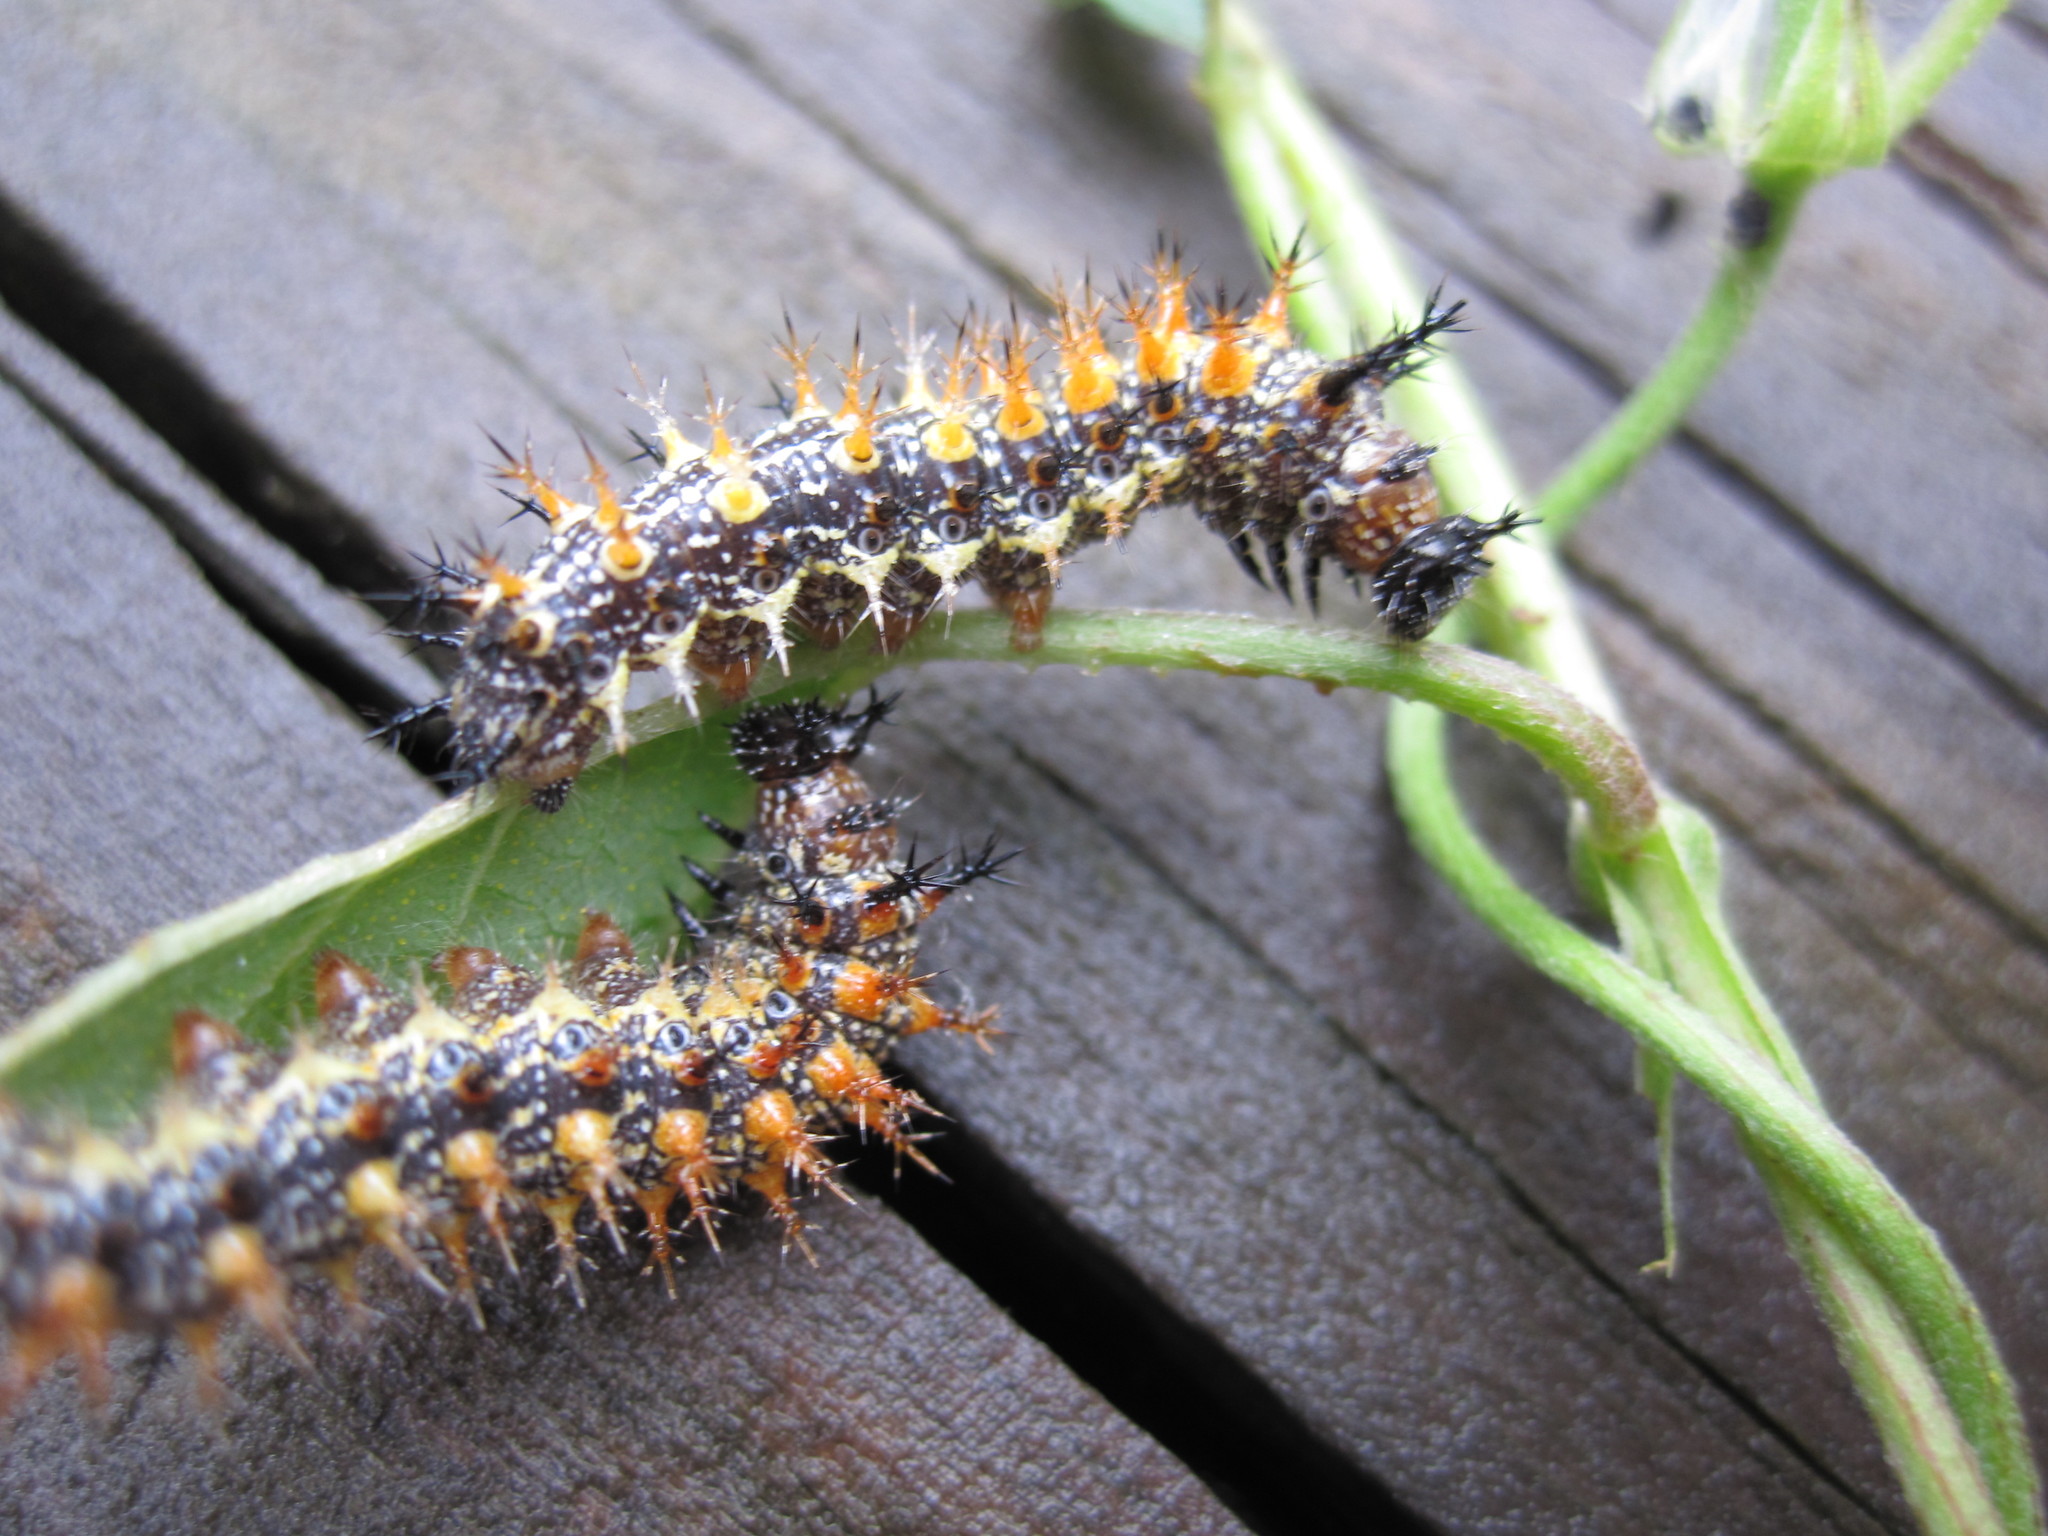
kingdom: Animalia
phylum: Arthropoda
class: Insecta
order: Lepidoptera
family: Nymphalidae
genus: Polygonia
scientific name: Polygonia interrogationis
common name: Question mark
